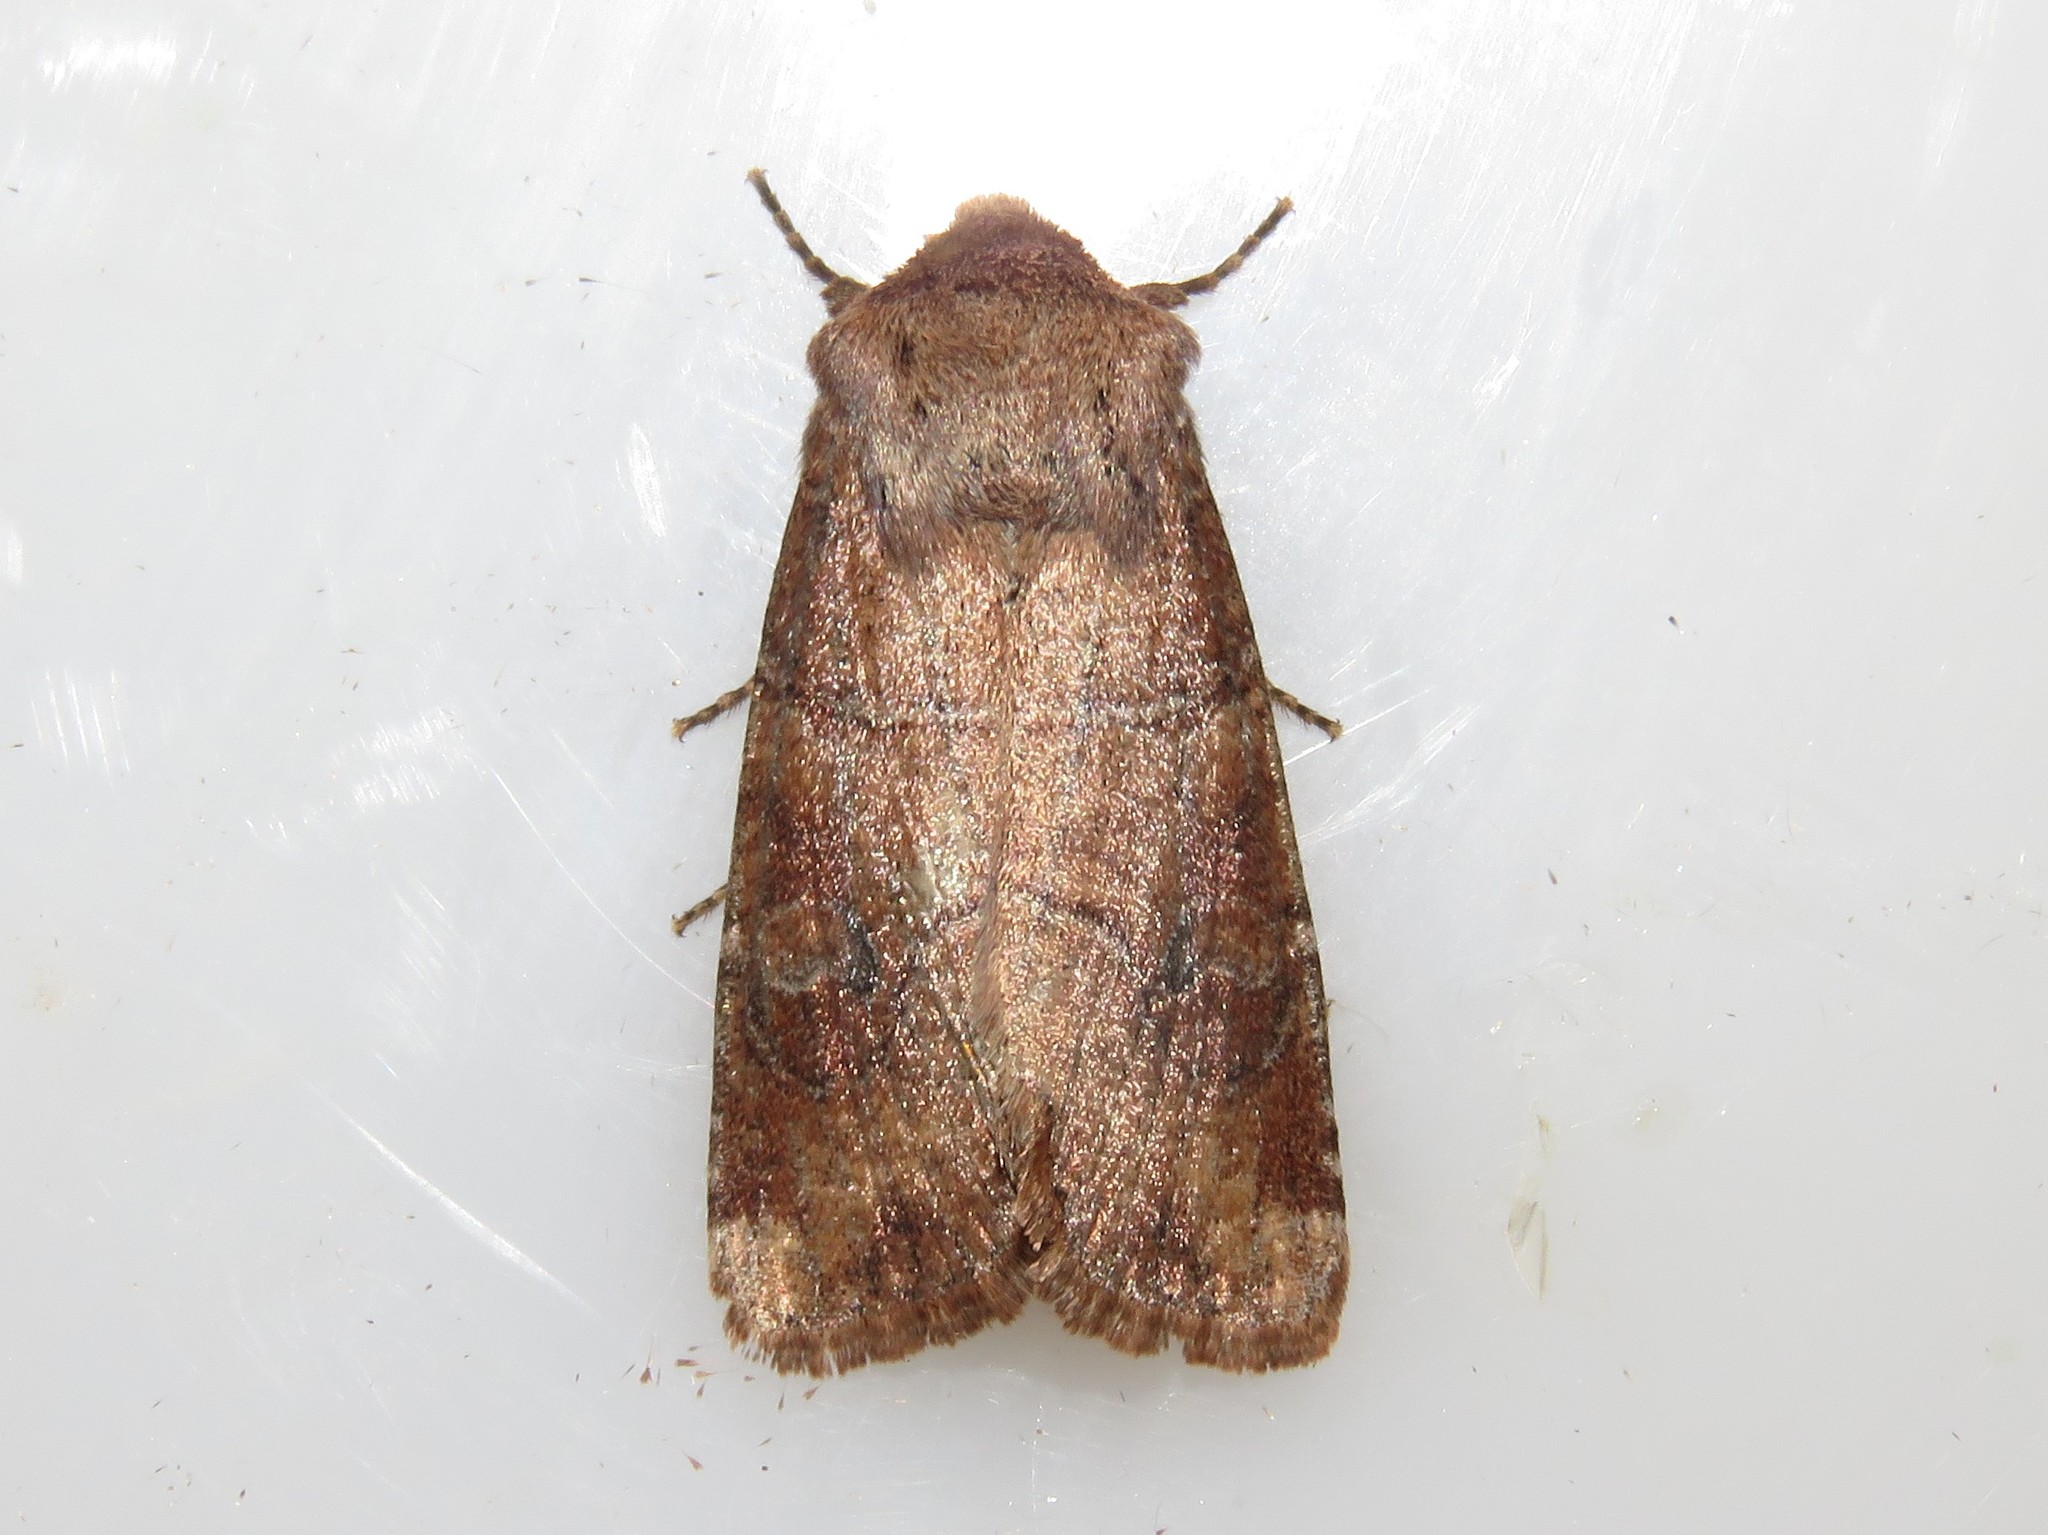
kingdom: Animalia
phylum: Arthropoda
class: Insecta
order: Lepidoptera
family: Noctuidae
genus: Crocigrapha
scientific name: Crocigrapha normani
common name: Norman's quaker
